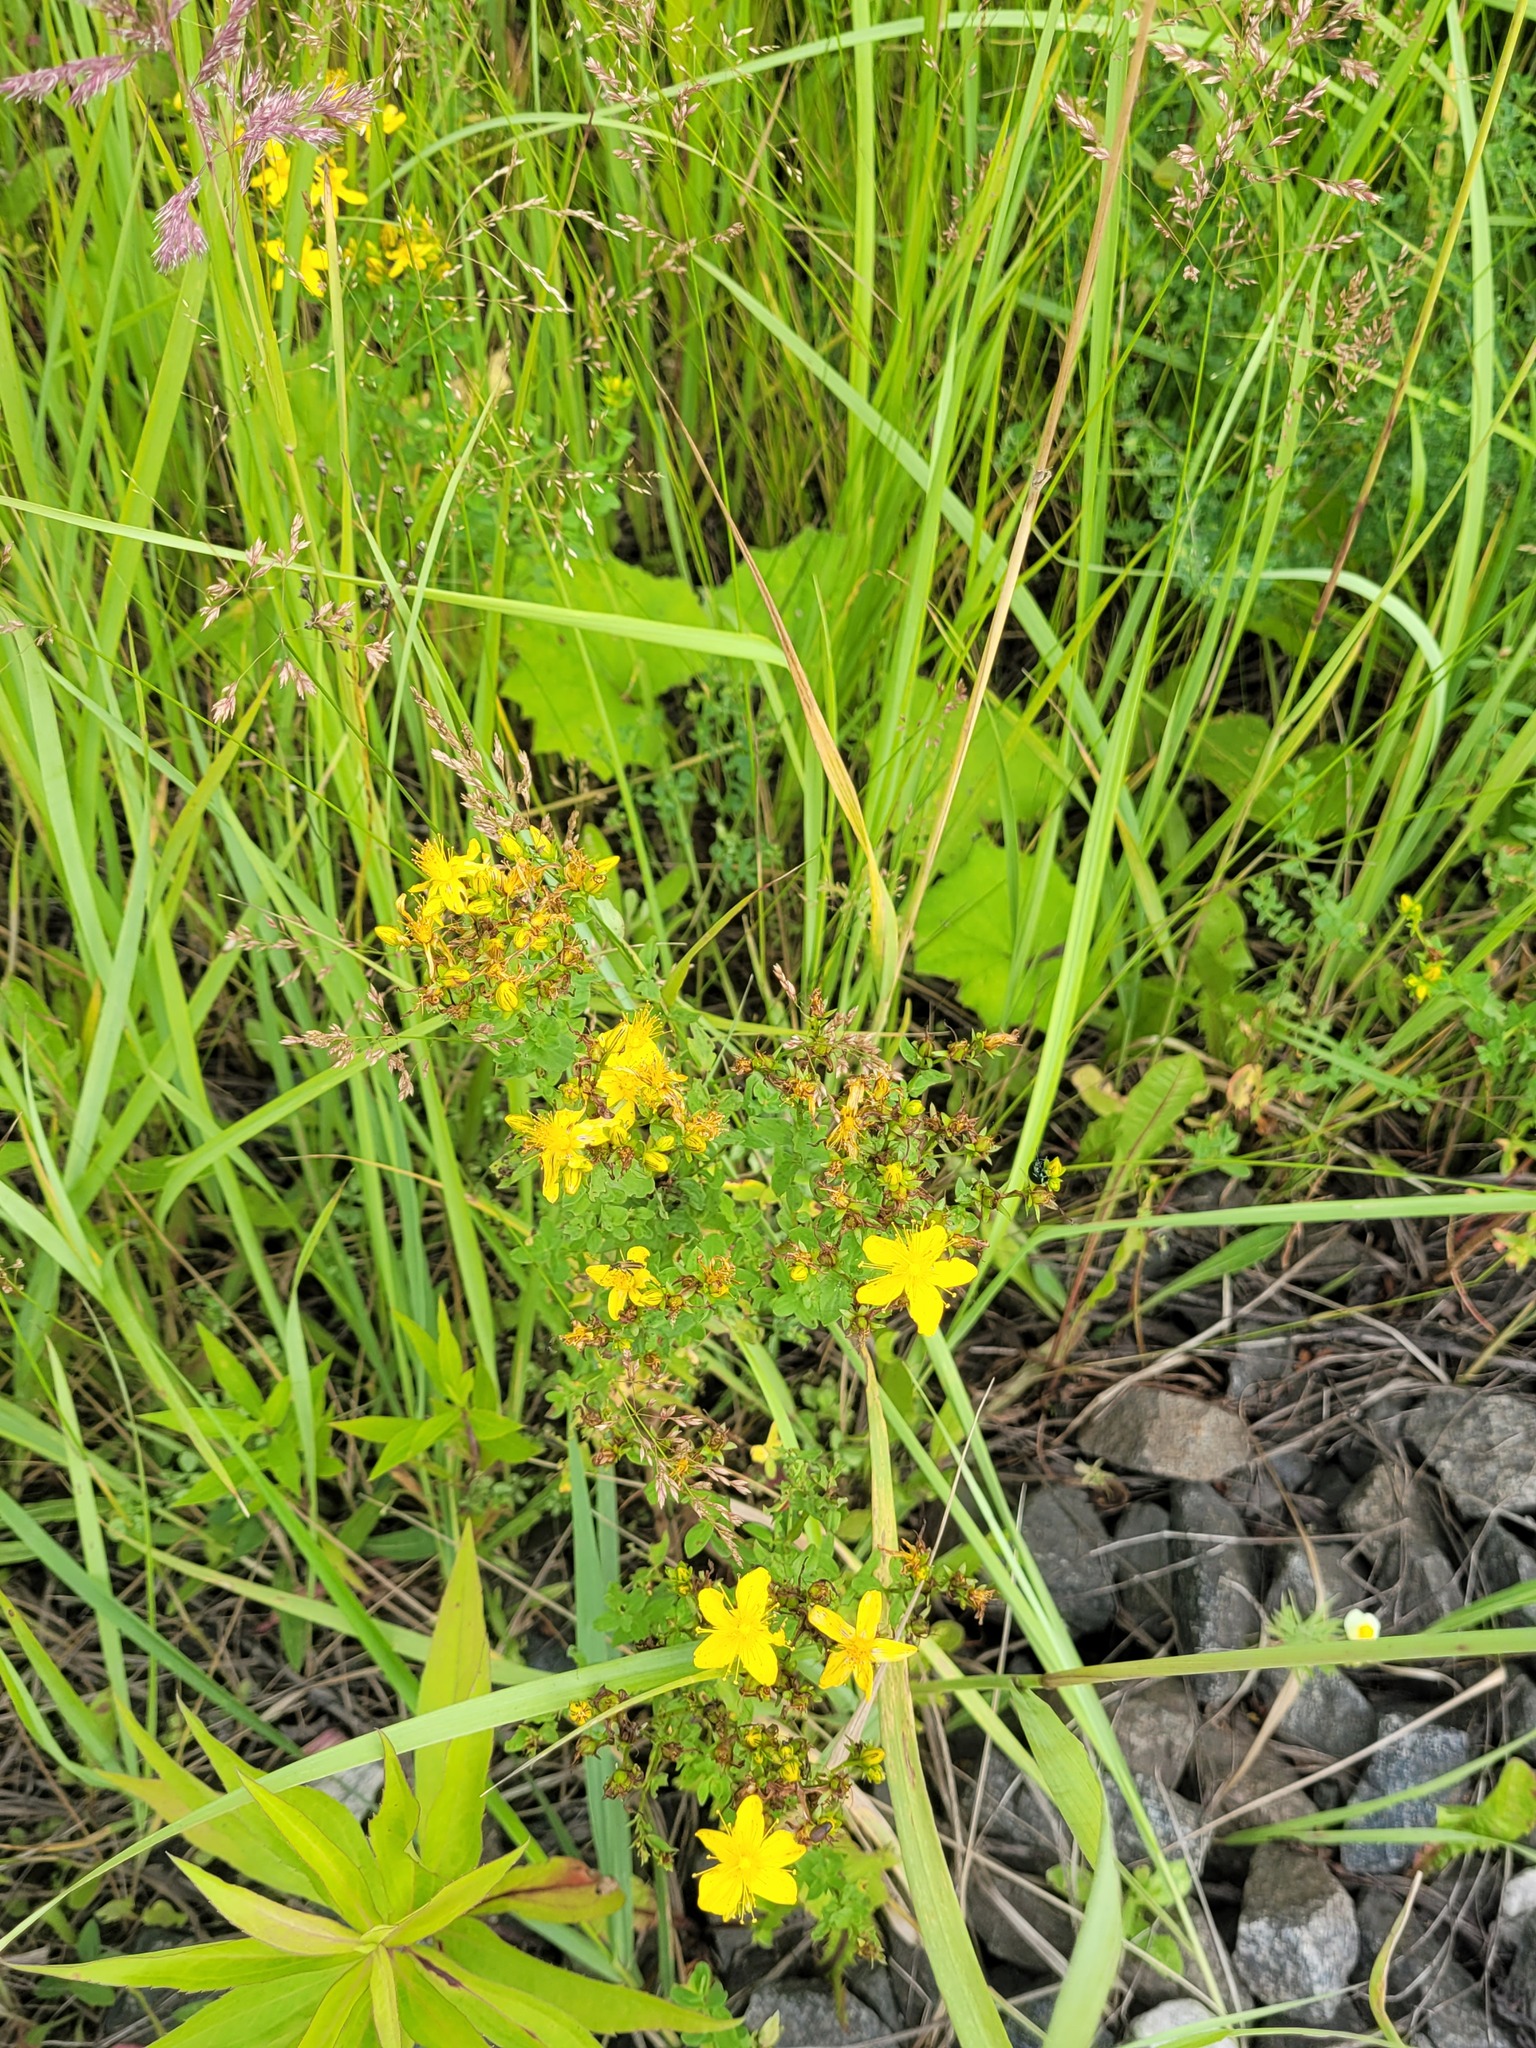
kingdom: Plantae
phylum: Tracheophyta
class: Magnoliopsida
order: Malpighiales
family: Hypericaceae
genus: Hypericum
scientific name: Hypericum perforatum
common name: Common st. johnswort
